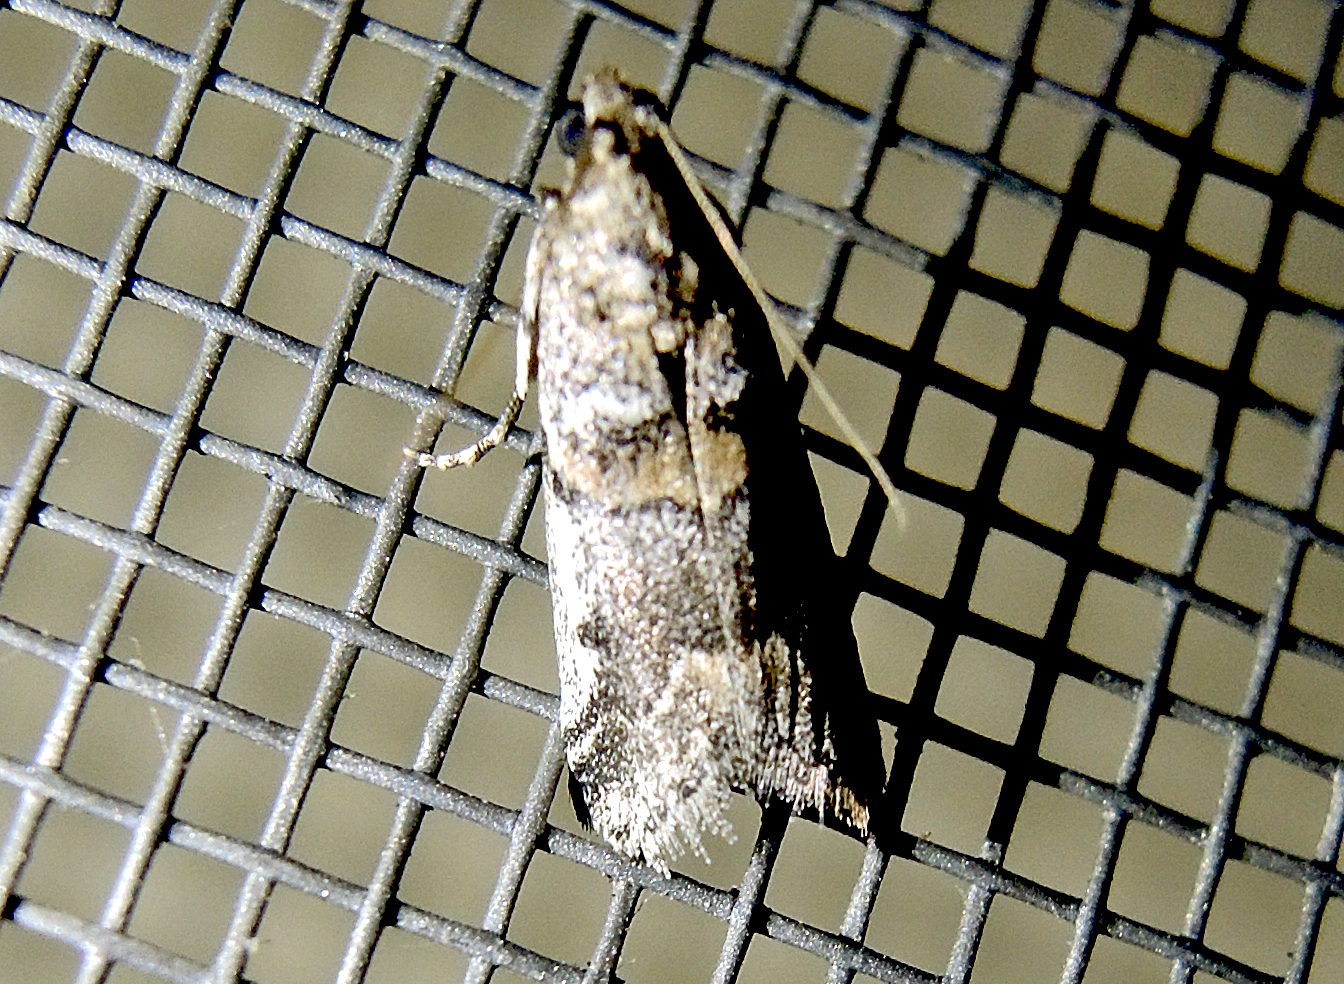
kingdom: Animalia
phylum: Arthropoda
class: Insecta
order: Lepidoptera
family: Pyralidae
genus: Acrobasis
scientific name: Acrobasis dulcella
